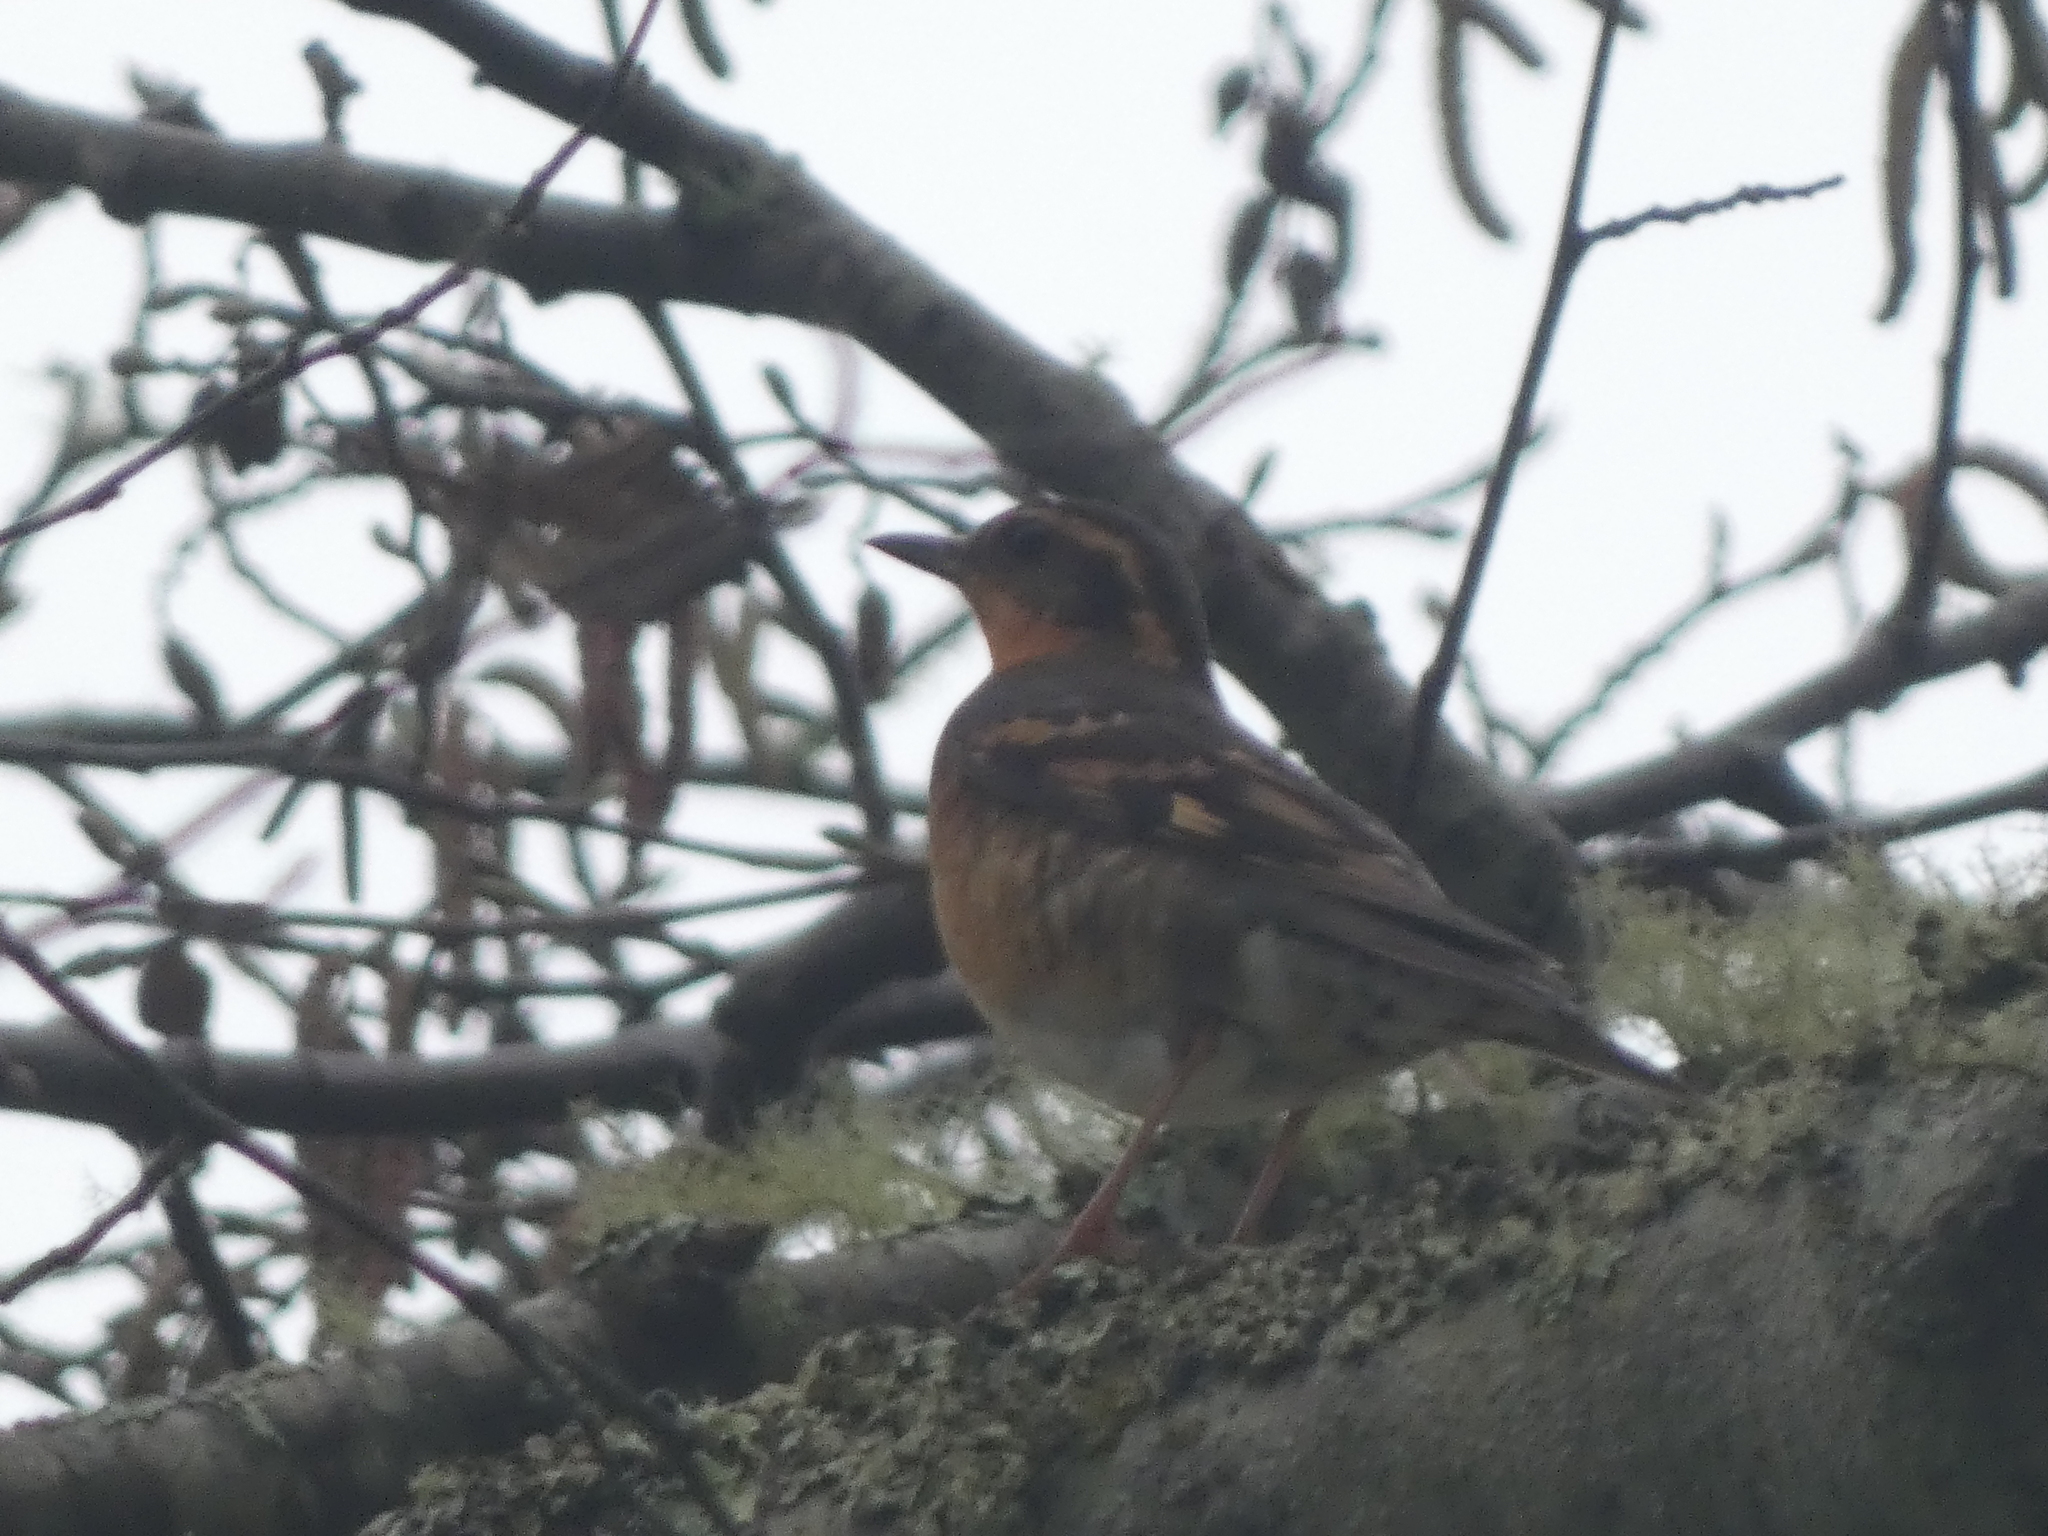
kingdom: Animalia
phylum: Chordata
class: Aves
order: Passeriformes
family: Turdidae
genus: Ixoreus
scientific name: Ixoreus naevius
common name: Varied thrush
